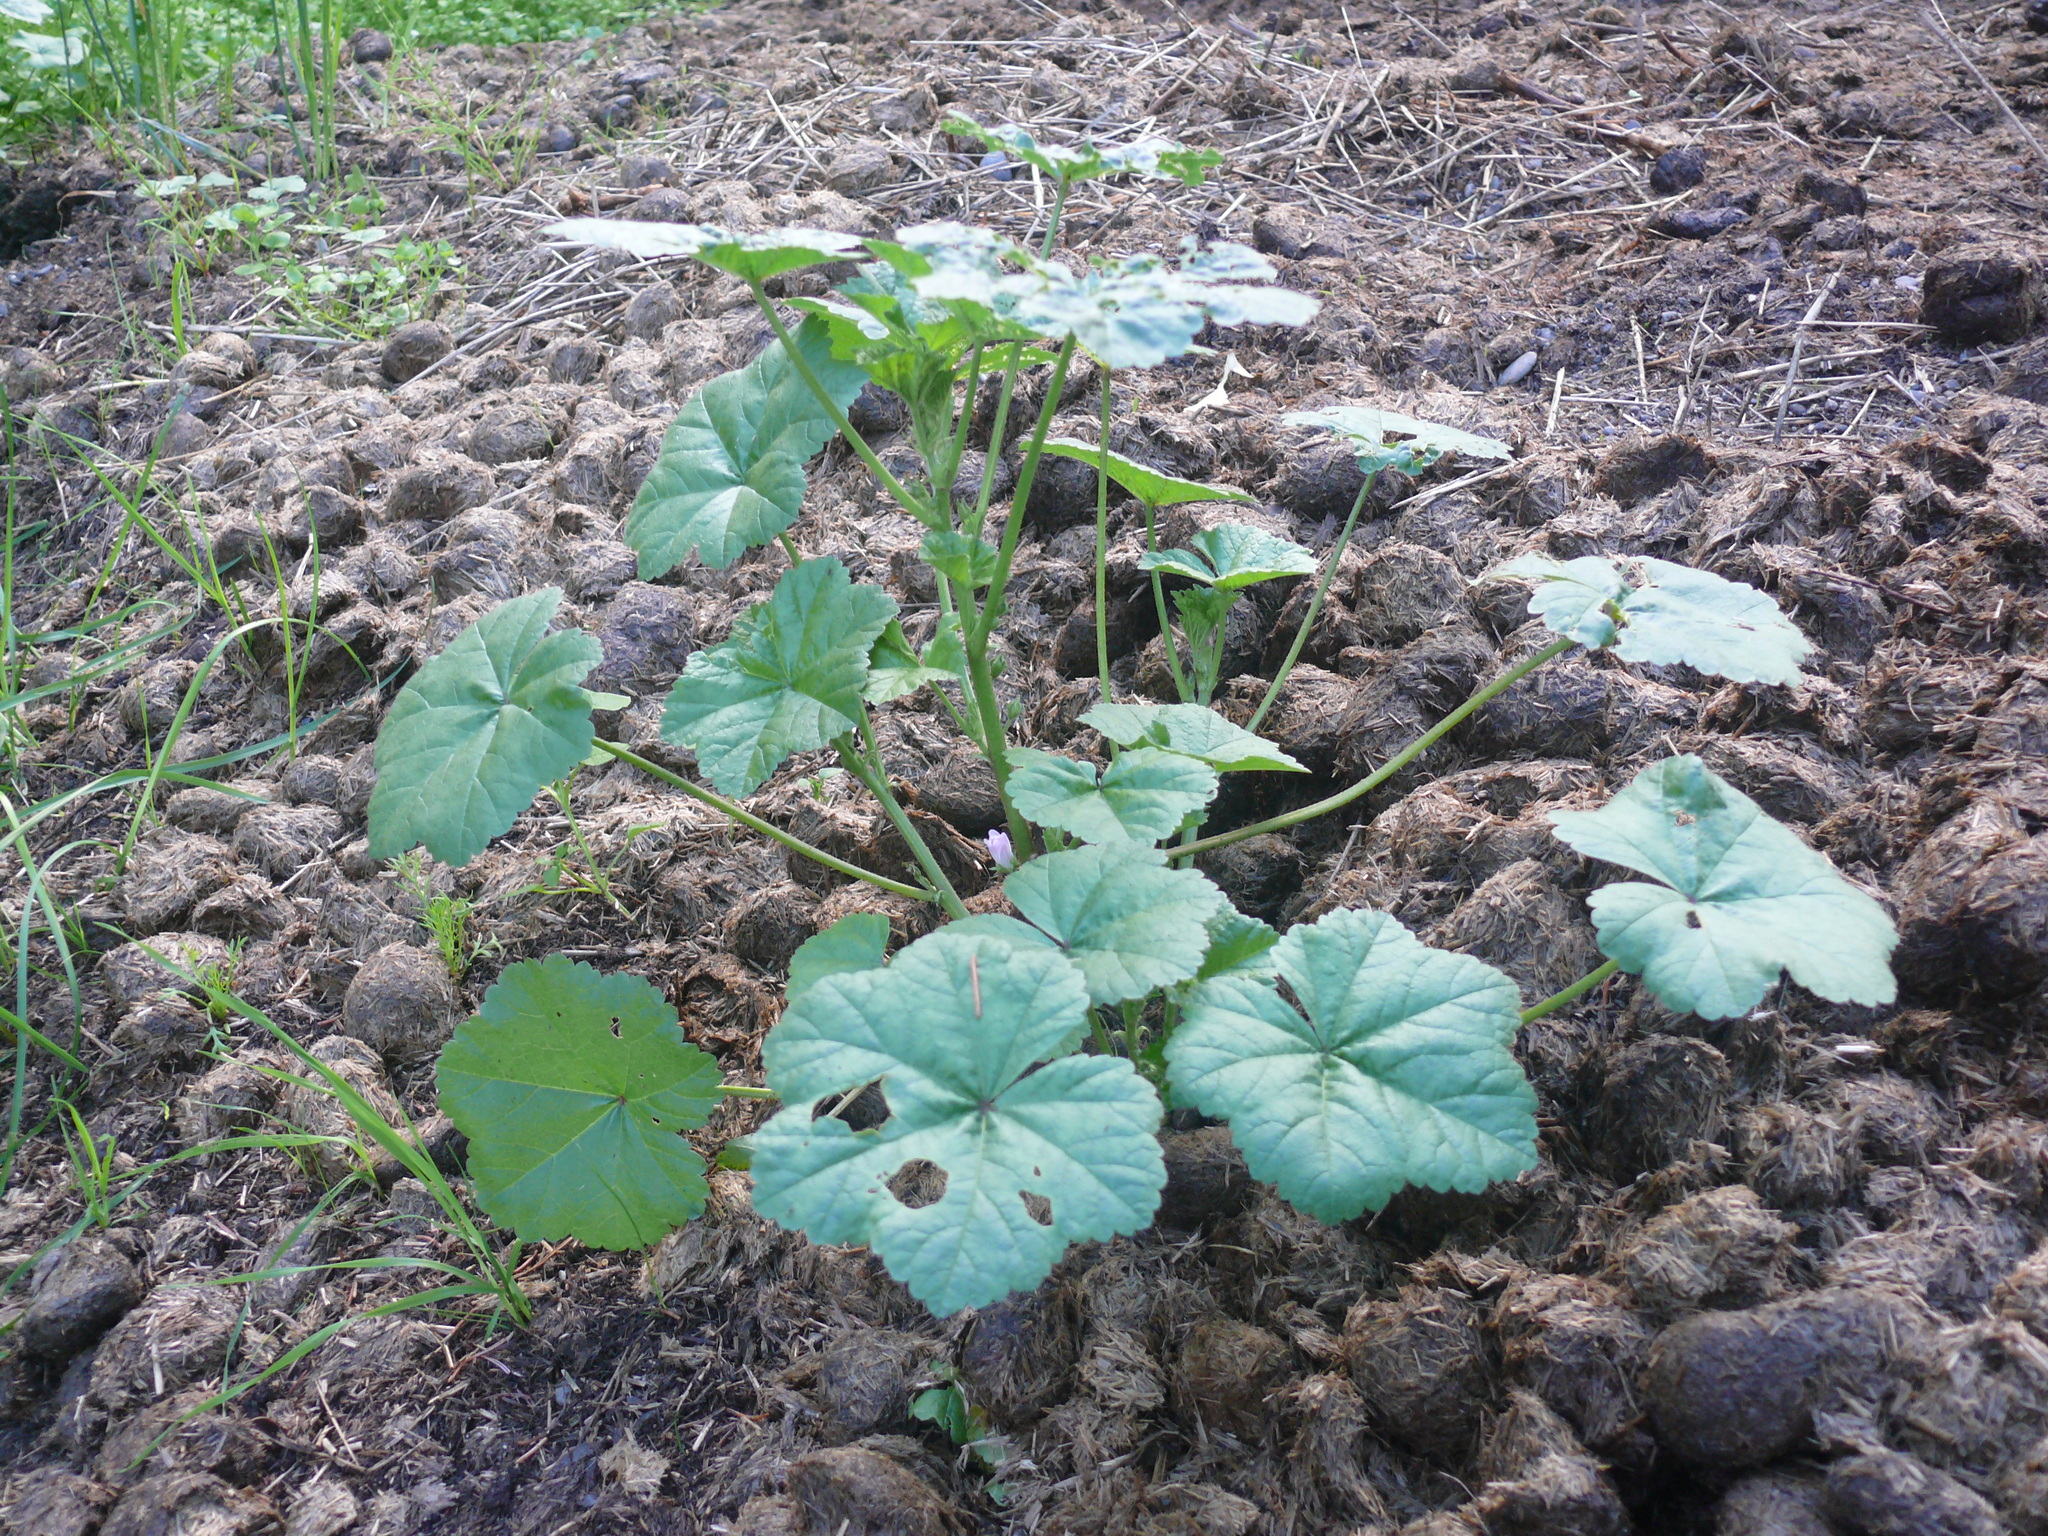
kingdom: Plantae
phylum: Tracheophyta
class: Magnoliopsida
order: Malvales
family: Malvaceae
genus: Malva
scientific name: Malva neglecta
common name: Common mallow
